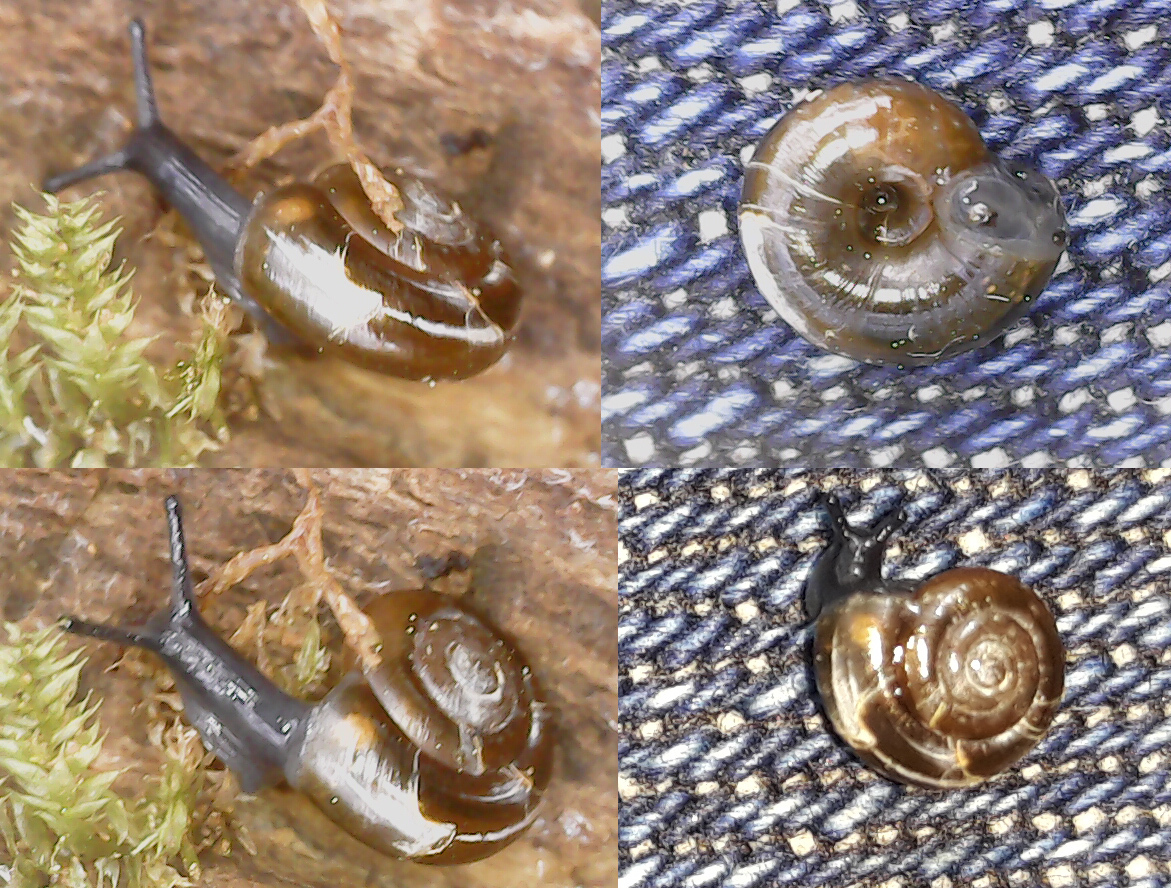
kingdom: Animalia
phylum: Mollusca
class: Gastropoda
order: Stylommatophora
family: Gastrodontidae
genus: Zonitoides
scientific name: Zonitoides nitidus
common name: Shiny glass snail
